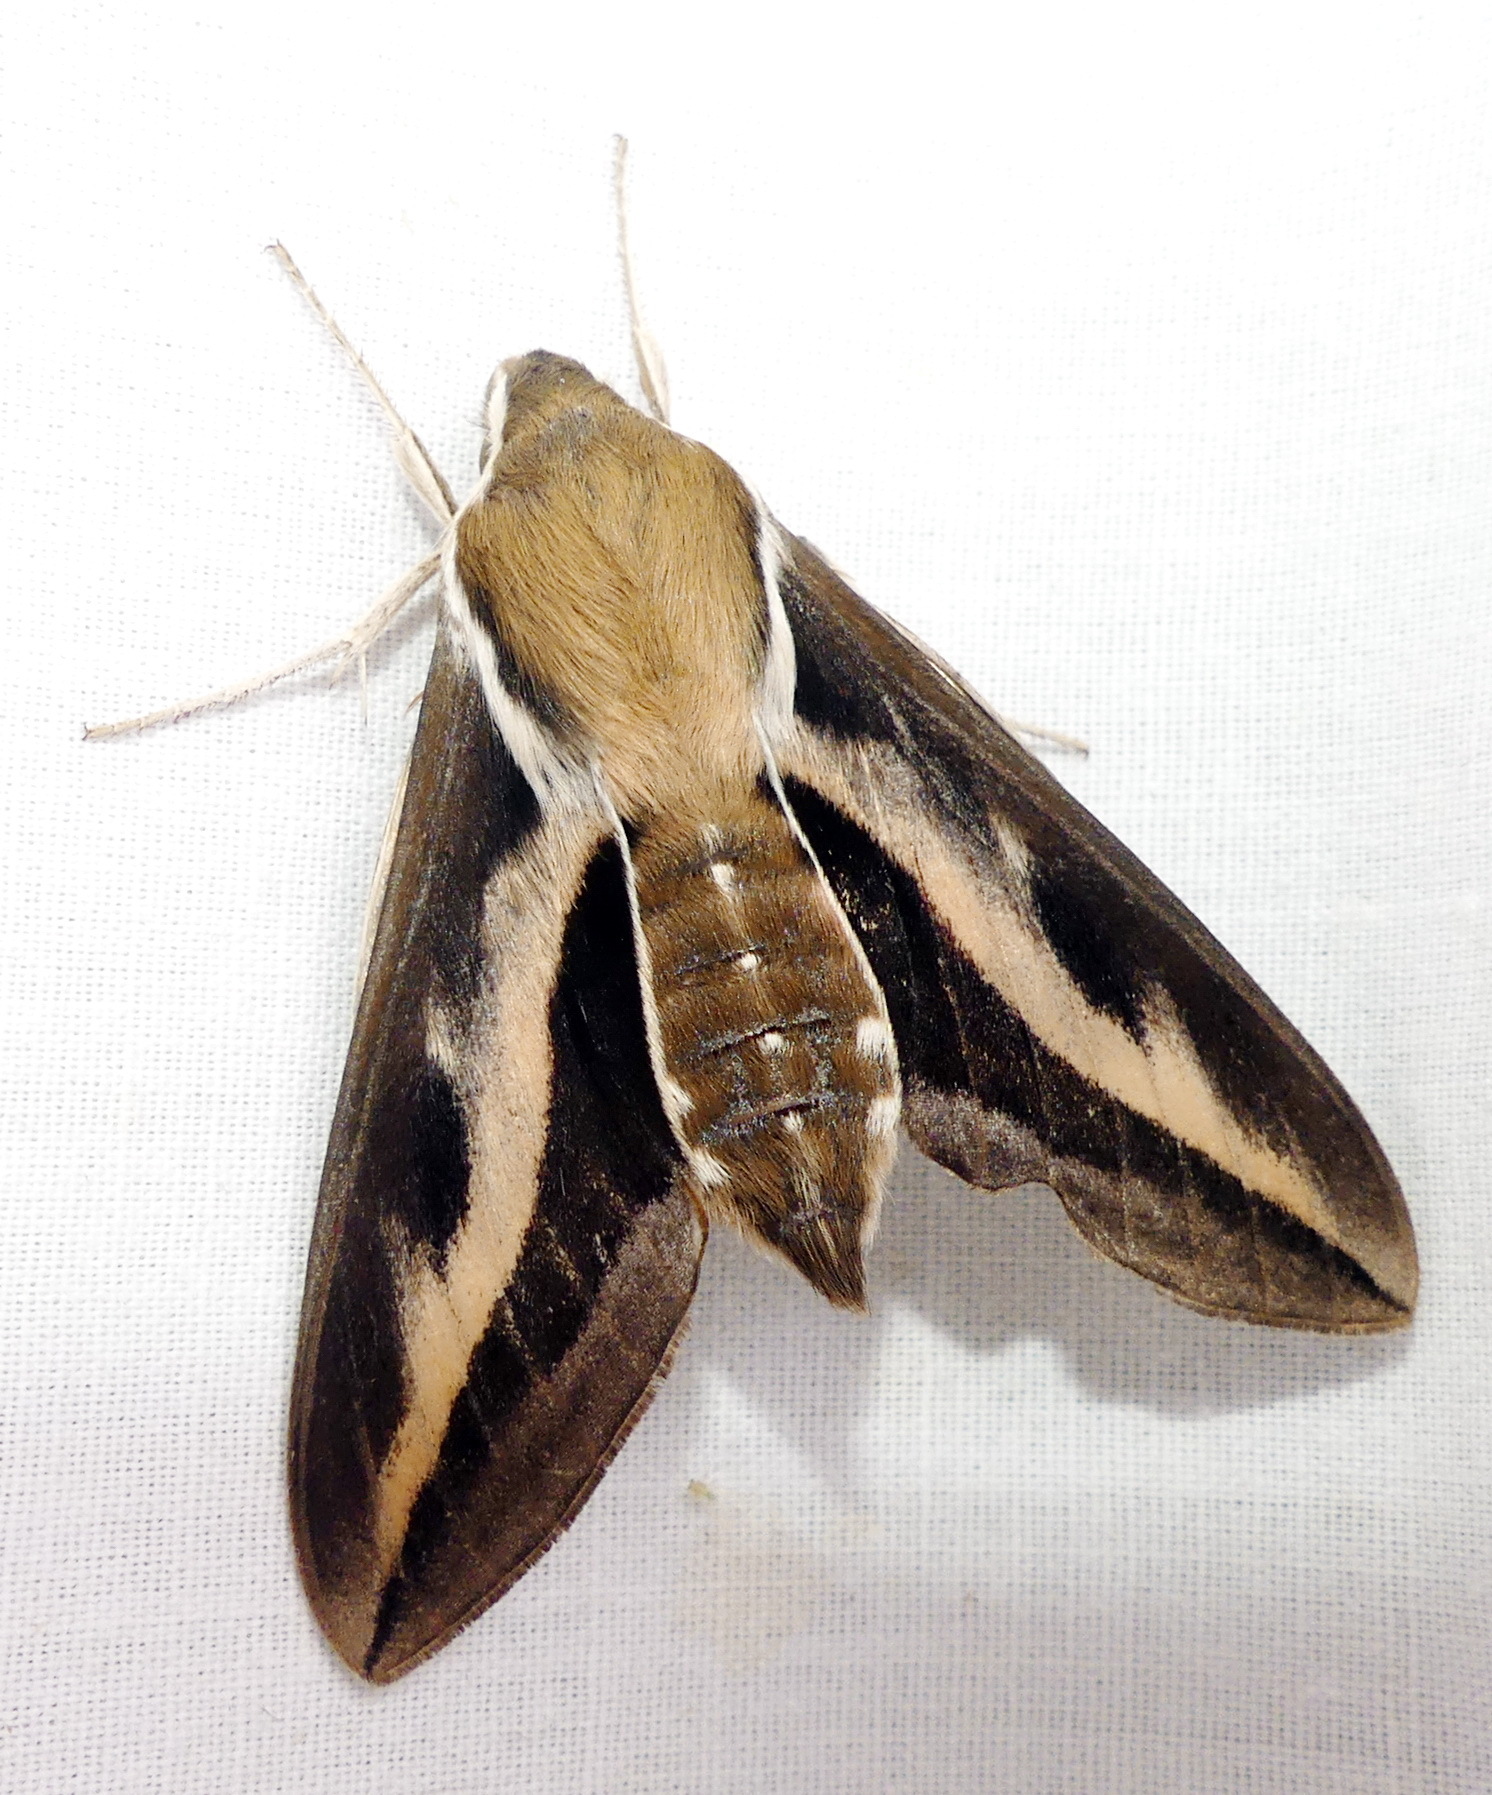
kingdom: Animalia
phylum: Arthropoda
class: Insecta
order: Lepidoptera
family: Sphingidae
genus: Hyles
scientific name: Hyles gallii
